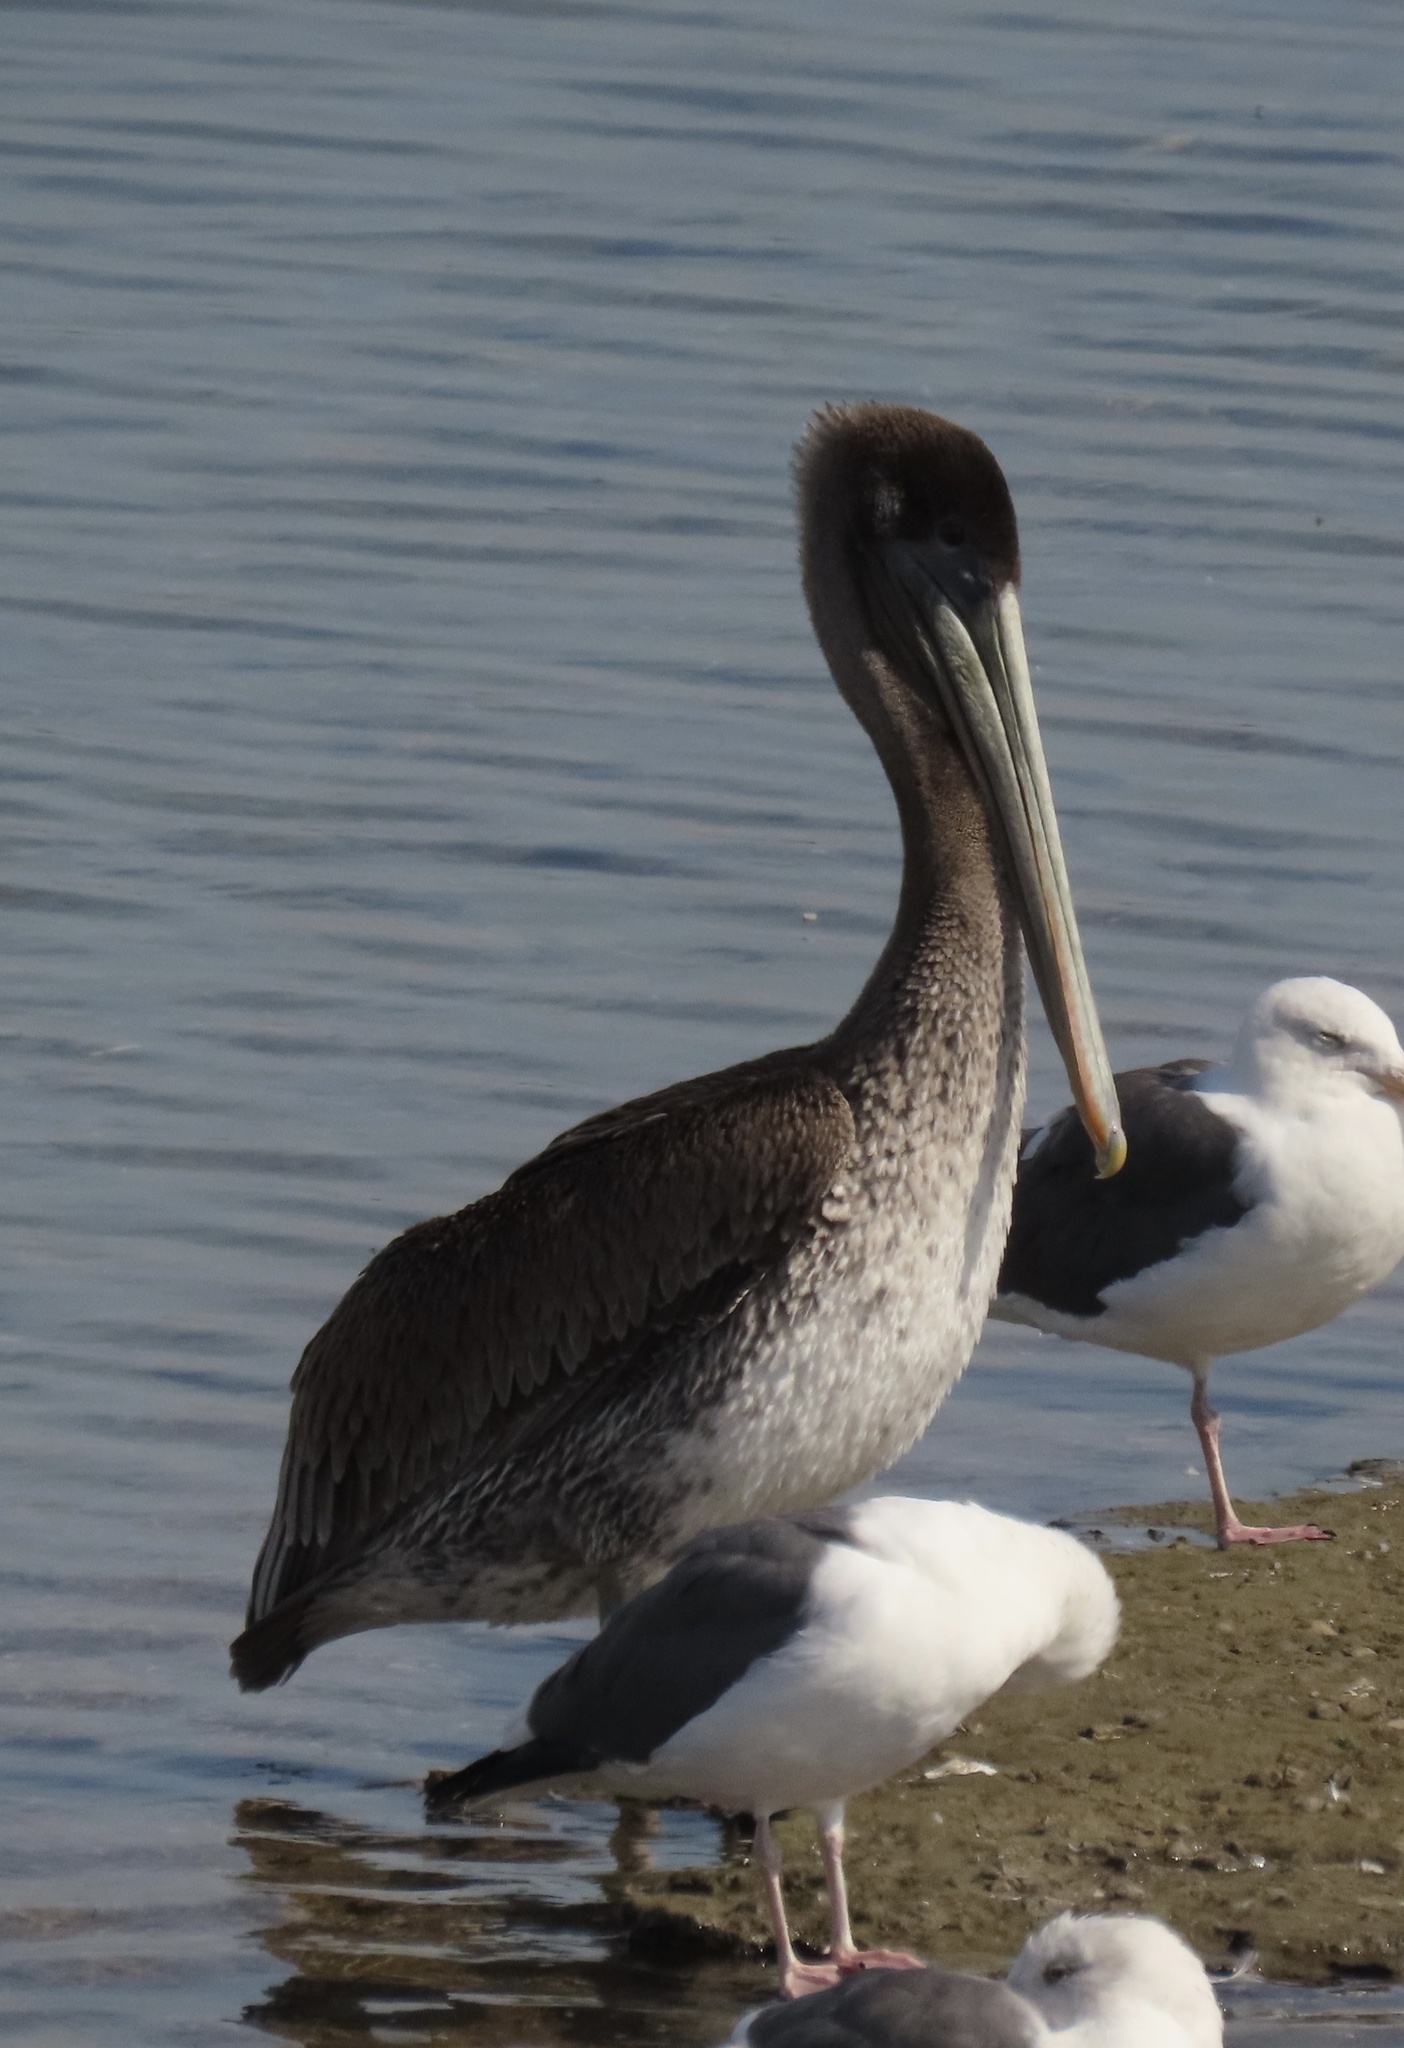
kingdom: Animalia
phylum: Chordata
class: Aves
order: Pelecaniformes
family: Pelecanidae
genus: Pelecanus
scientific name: Pelecanus occidentalis
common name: Brown pelican
